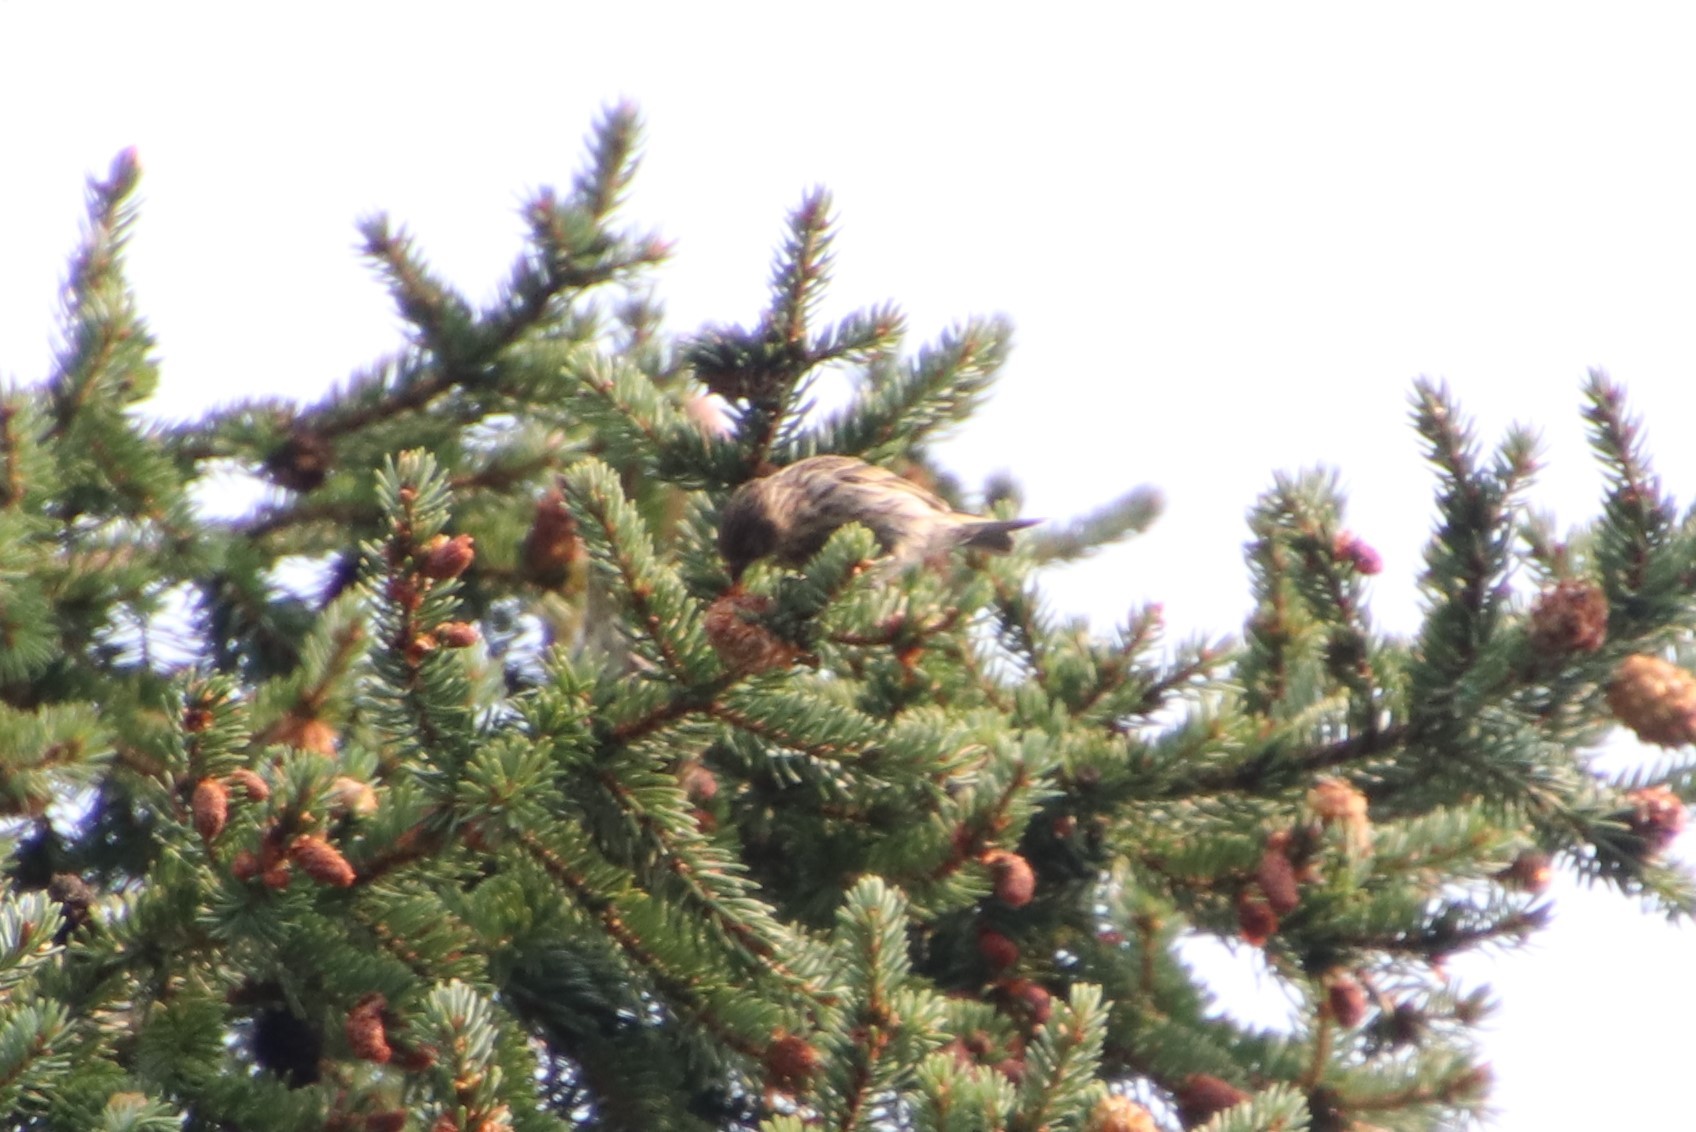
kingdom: Animalia
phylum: Chordata
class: Aves
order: Passeriformes
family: Fringillidae
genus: Spinus
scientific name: Spinus pinus
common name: Pine siskin
